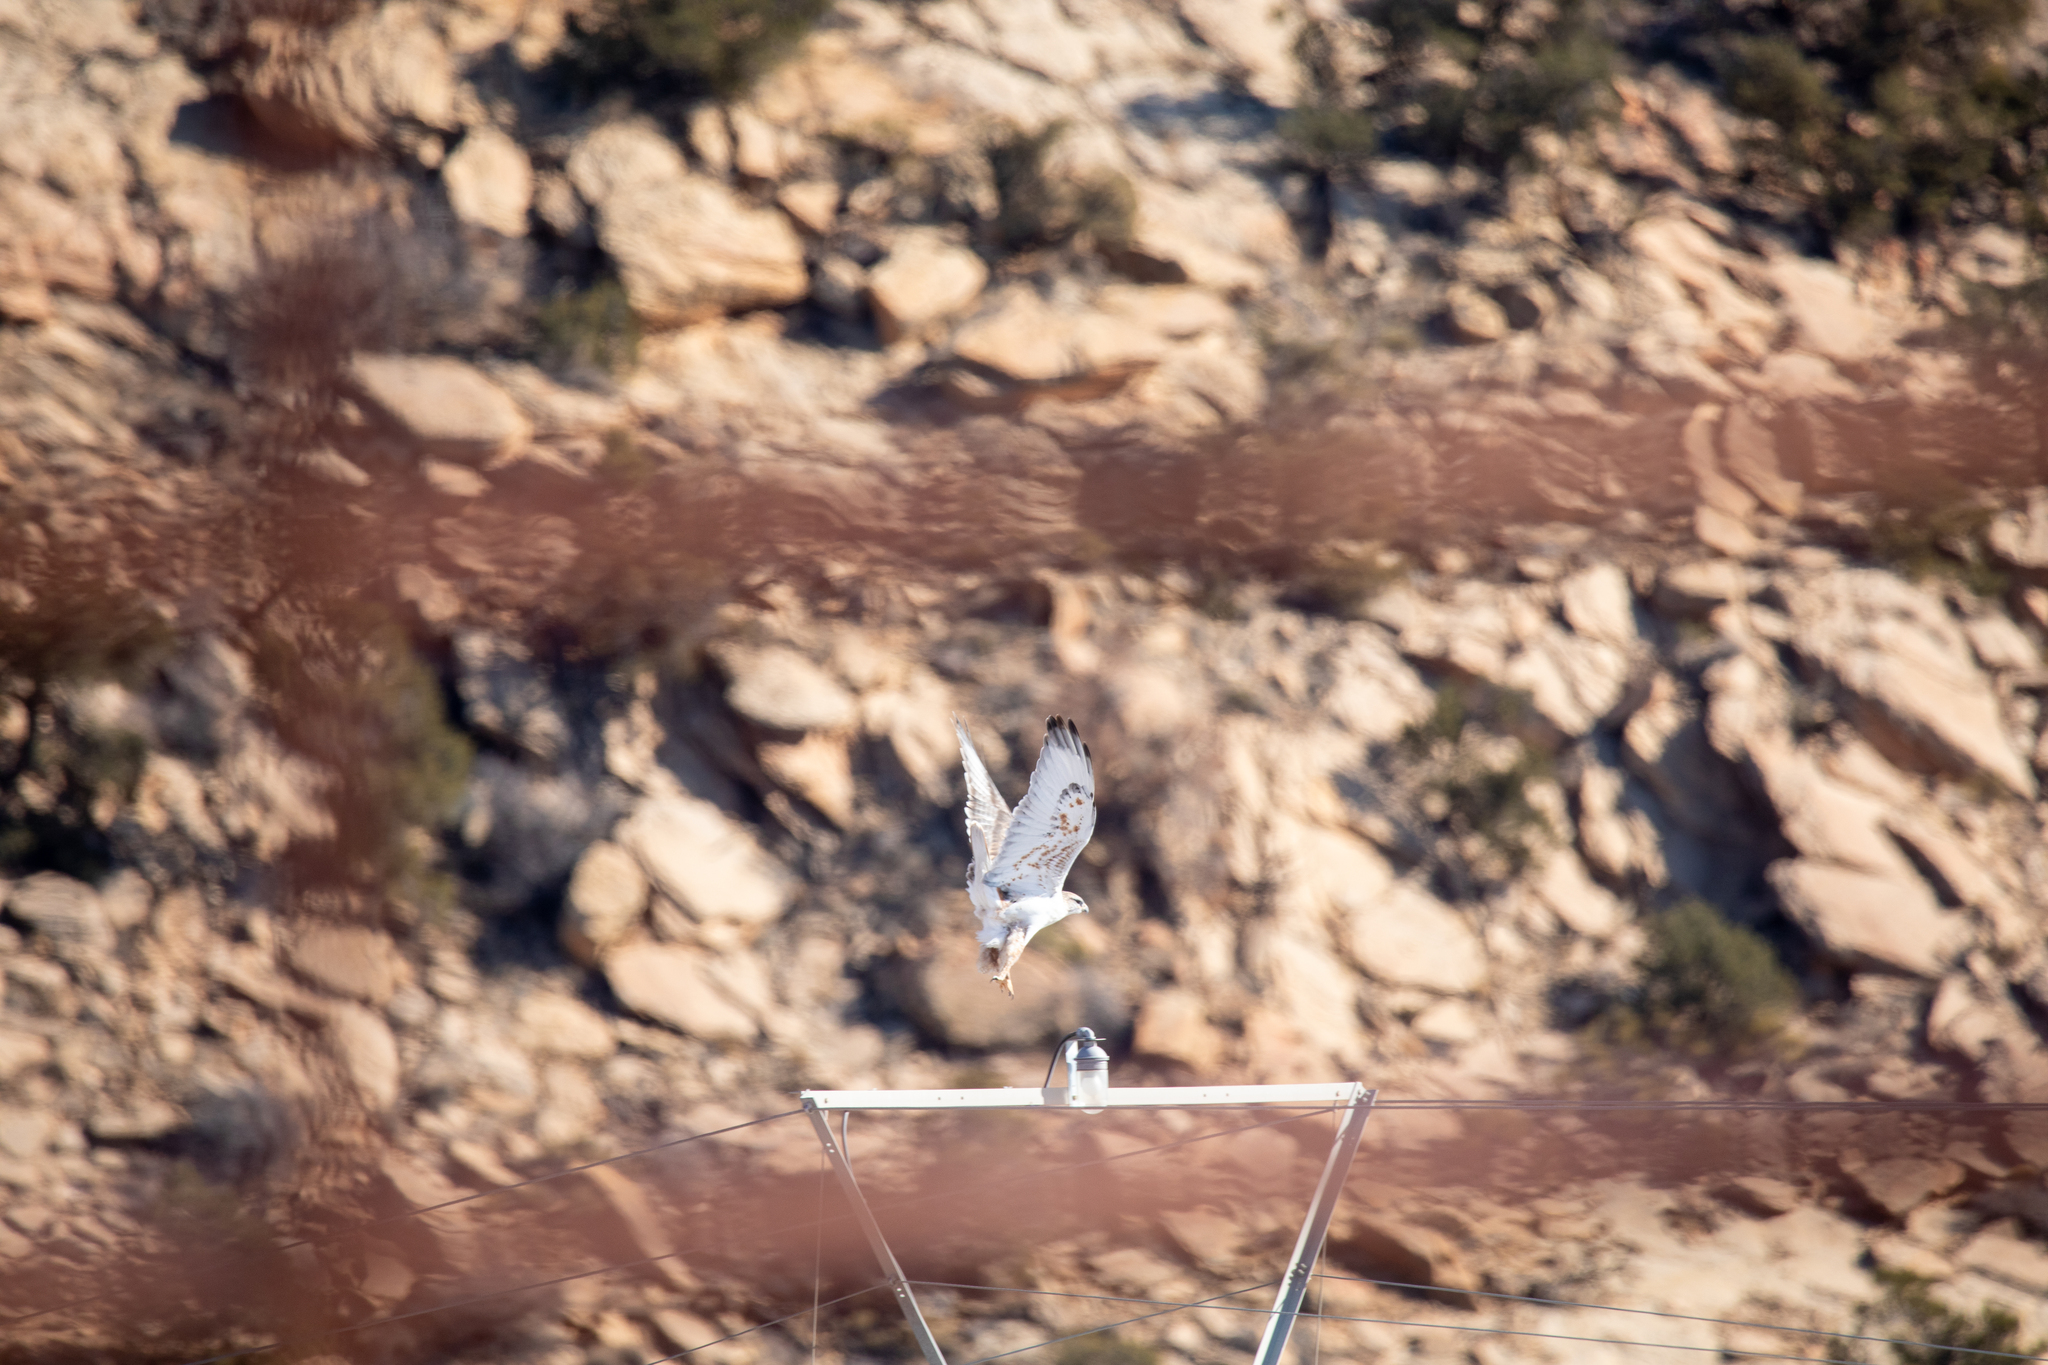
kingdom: Animalia
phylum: Chordata
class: Aves
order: Accipitriformes
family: Accipitridae
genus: Buteo
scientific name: Buteo regalis
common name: Ferruginous hawk
